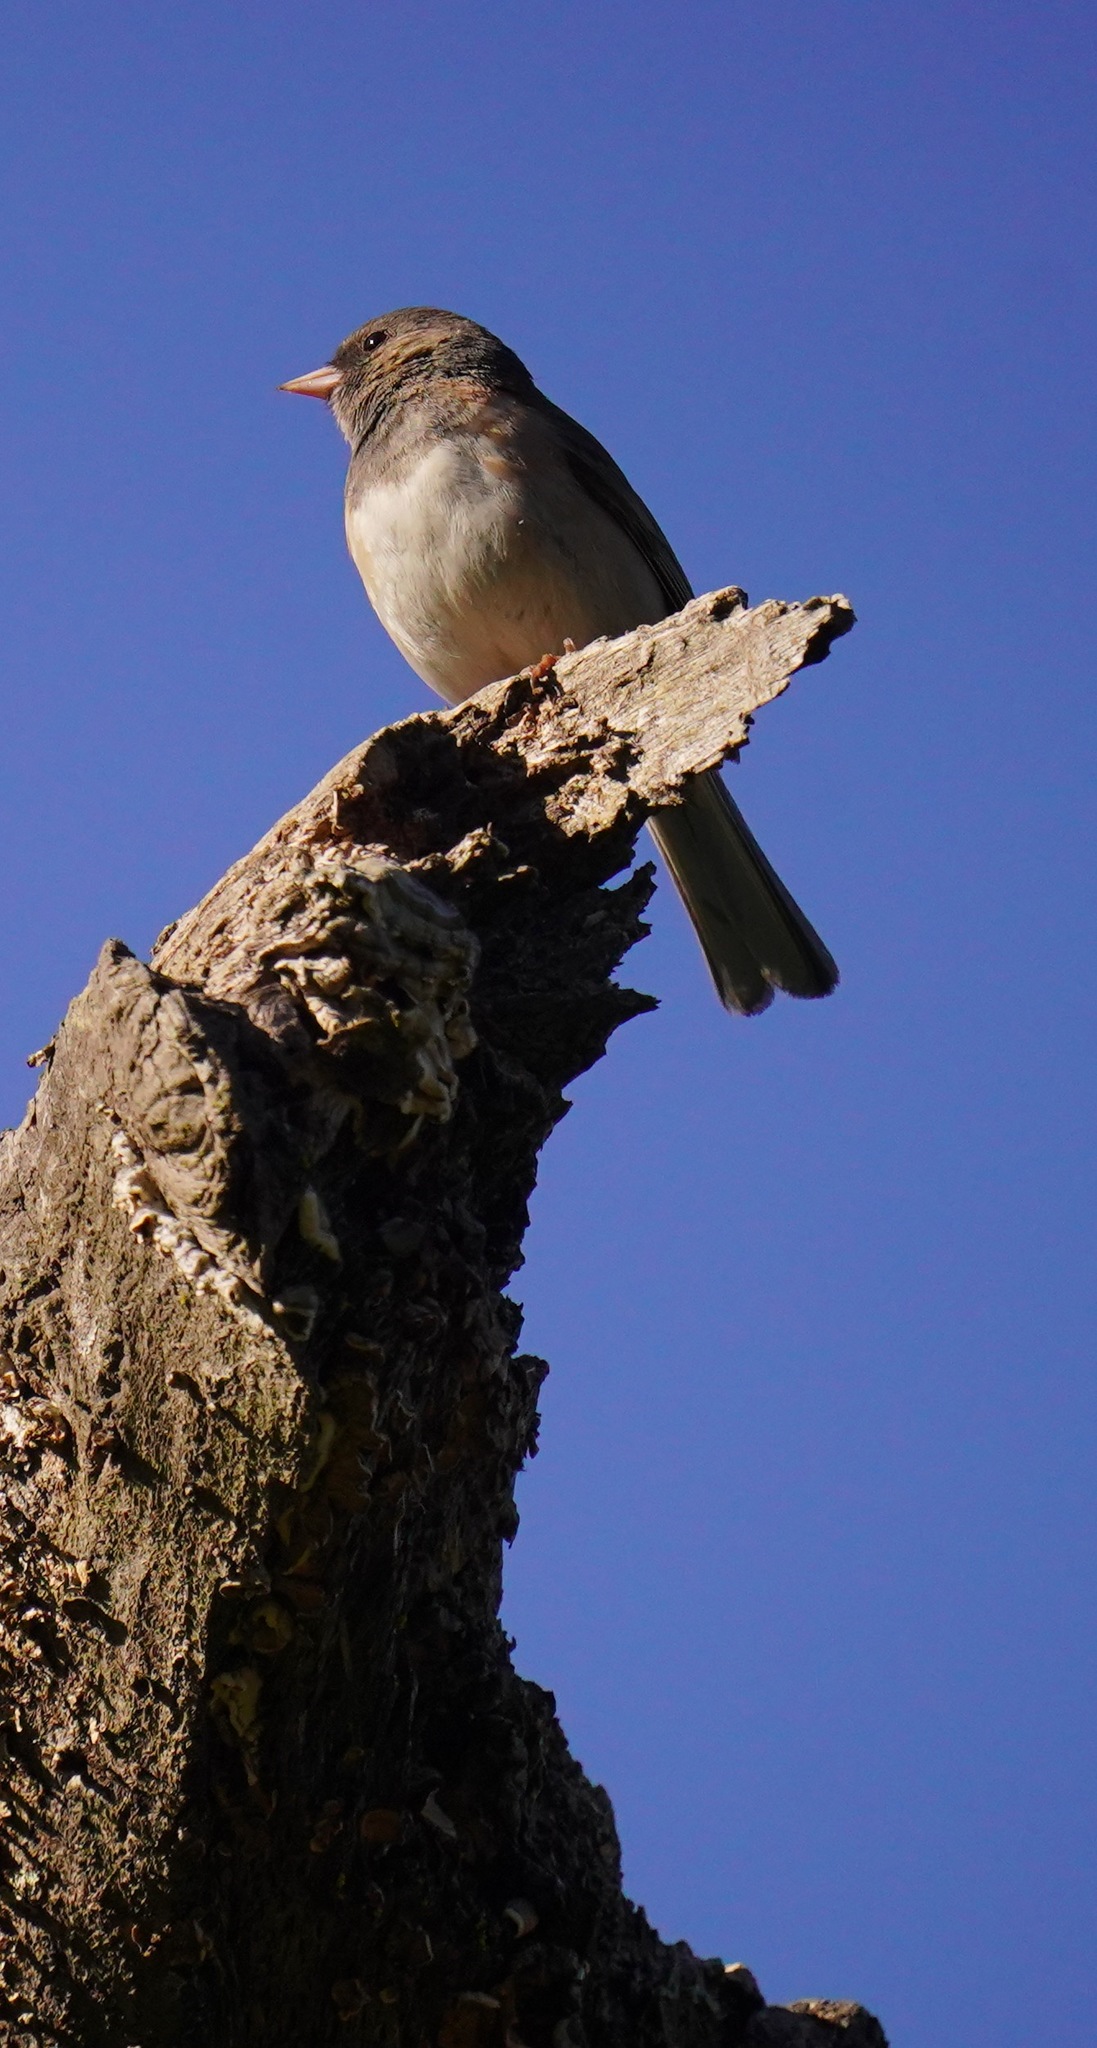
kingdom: Animalia
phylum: Chordata
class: Aves
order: Passeriformes
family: Passerellidae
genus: Junco
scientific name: Junco hyemalis
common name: Dark-eyed junco
